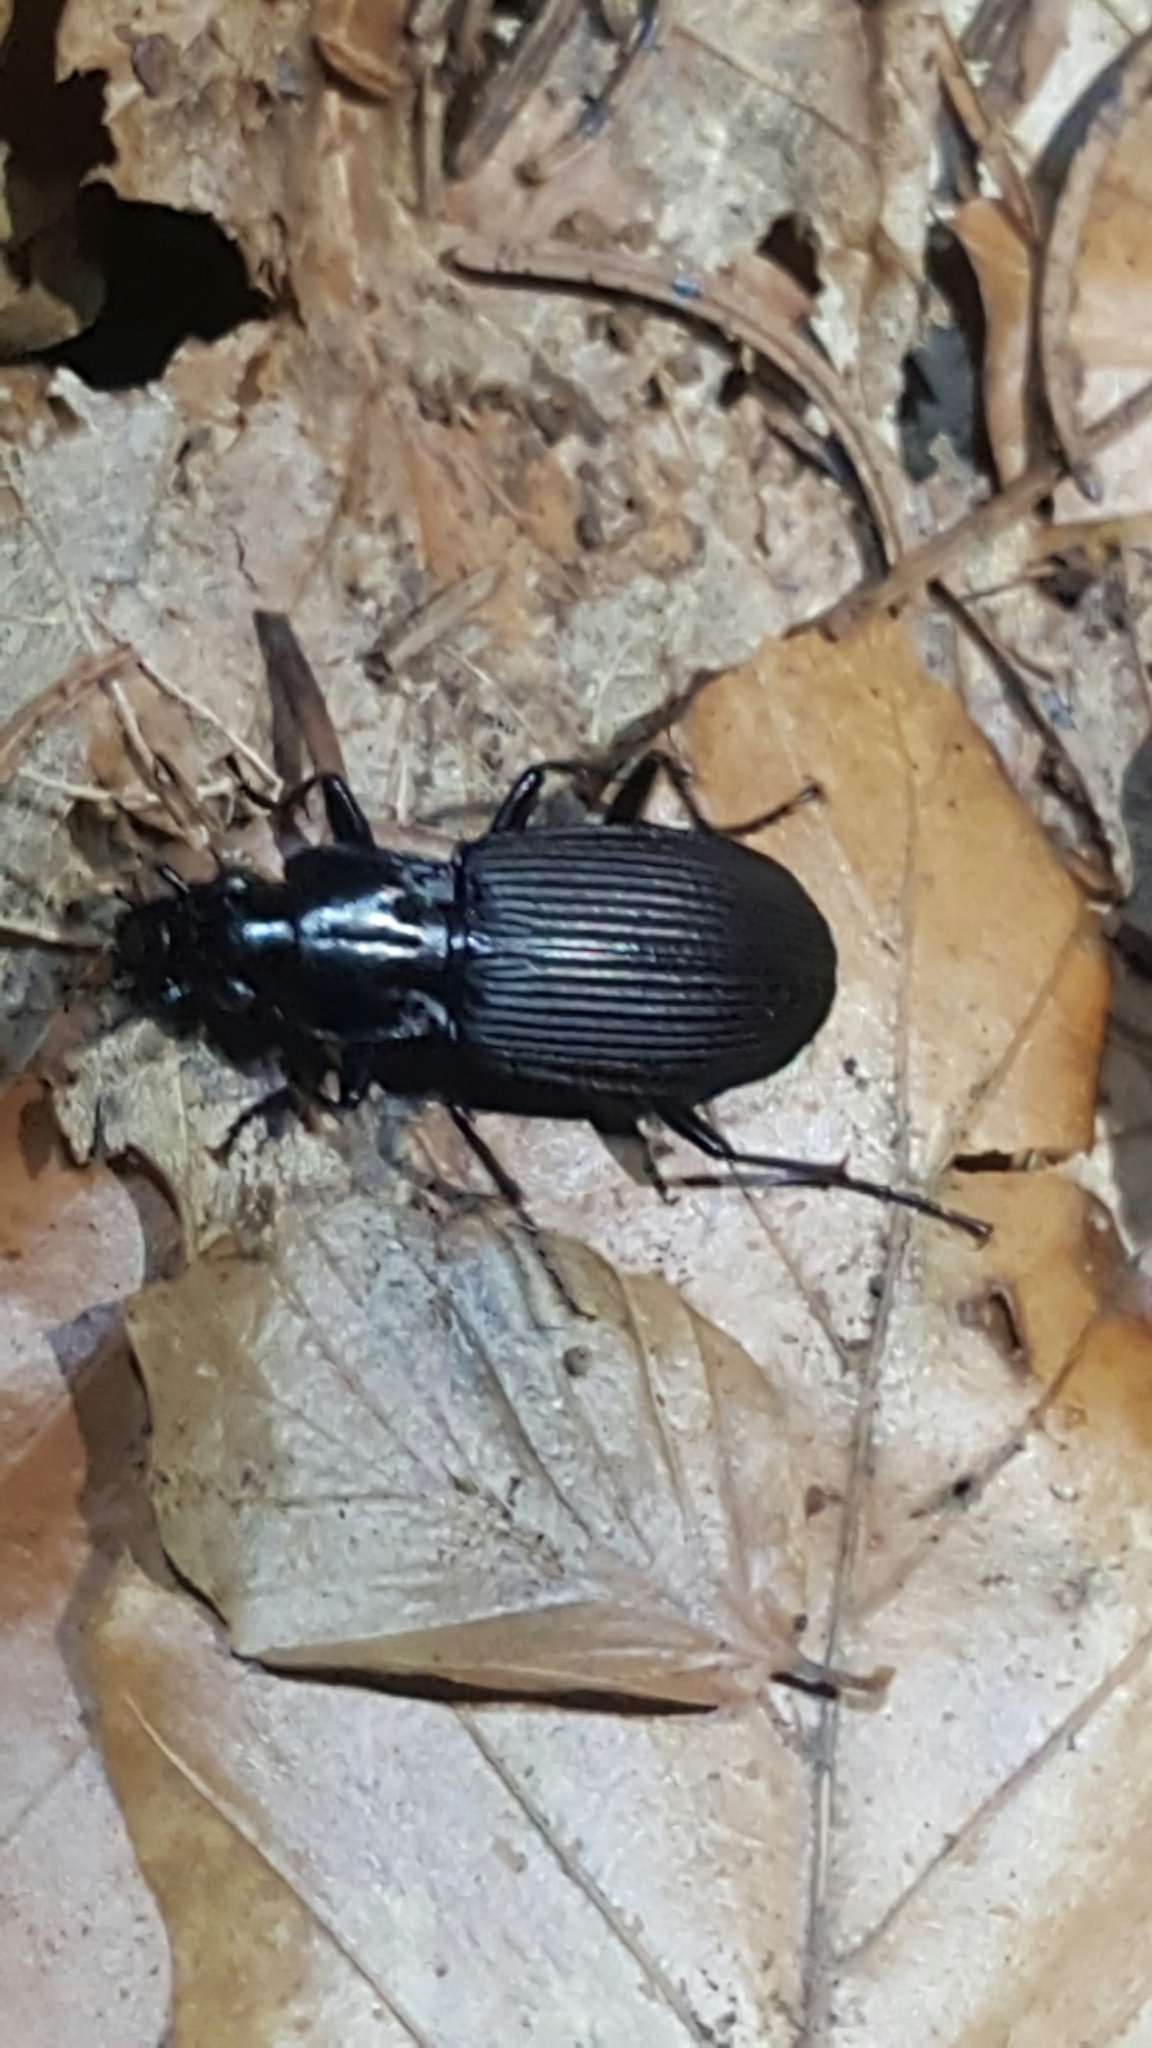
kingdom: Animalia
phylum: Arthropoda
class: Insecta
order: Coleoptera
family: Carabidae
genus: Pterostichus
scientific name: Pterostichus niger
